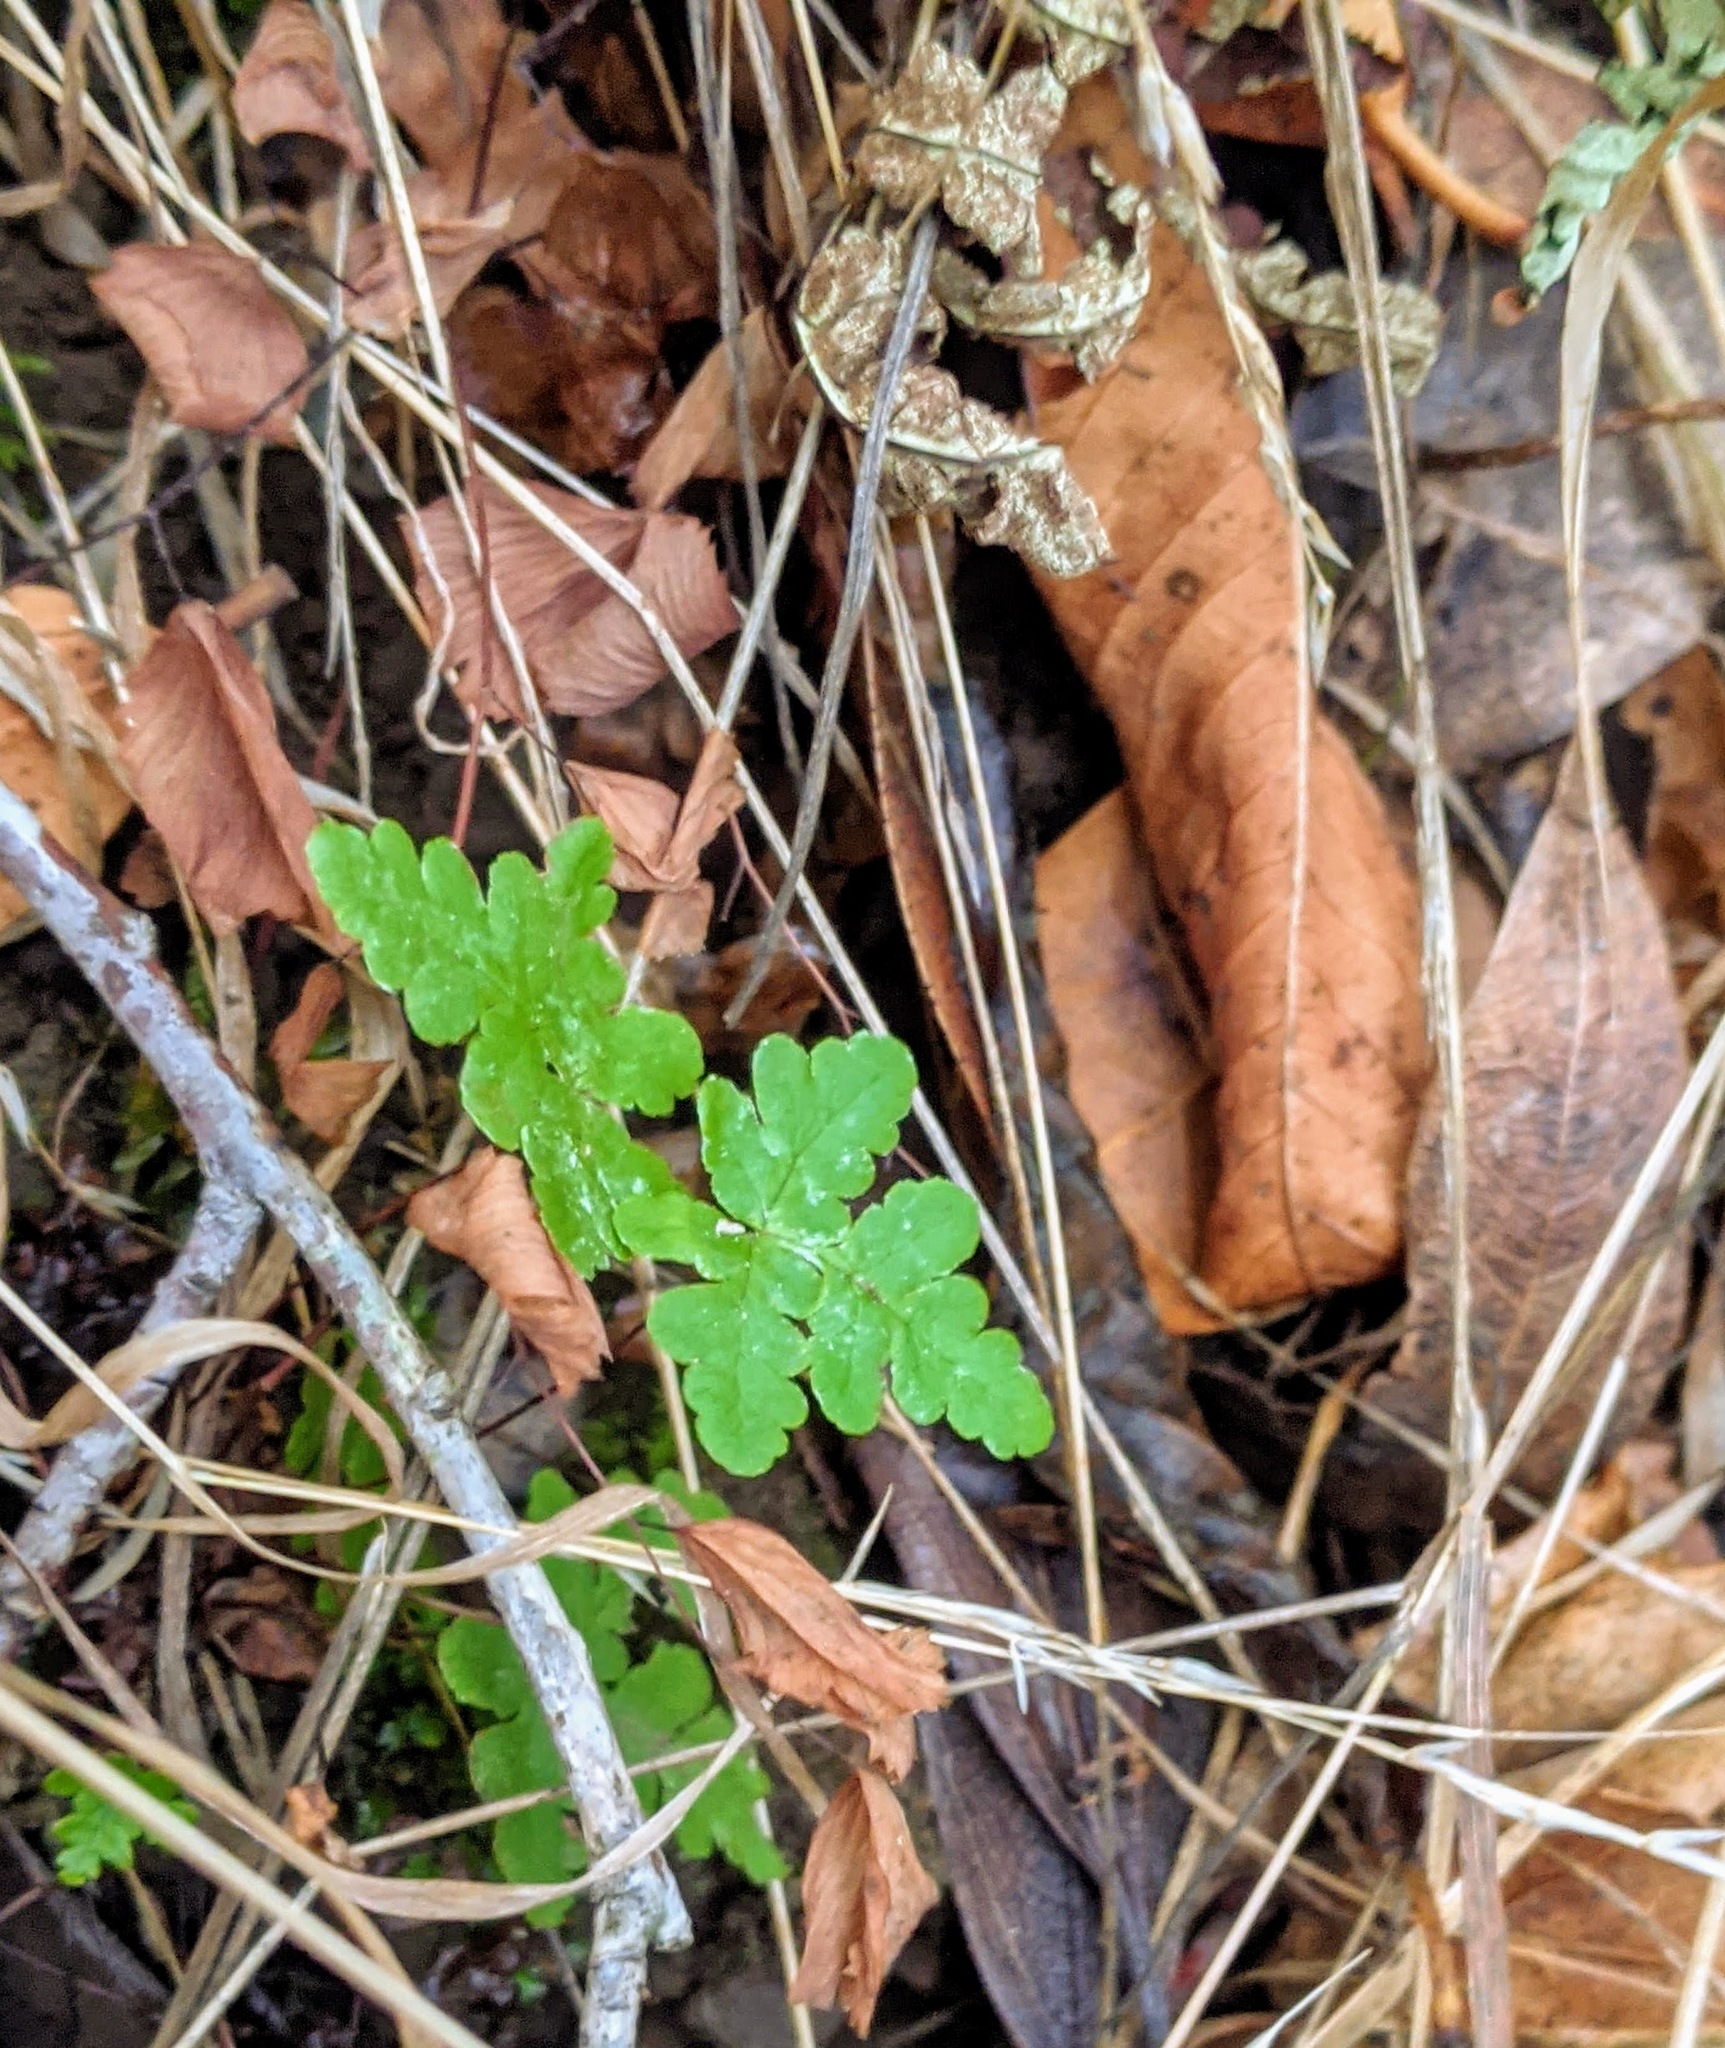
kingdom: Plantae
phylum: Tracheophyta
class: Polypodiopsida
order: Polypodiales
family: Pteridaceae
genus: Pentagramma
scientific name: Pentagramma triangularis
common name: Gold fern
